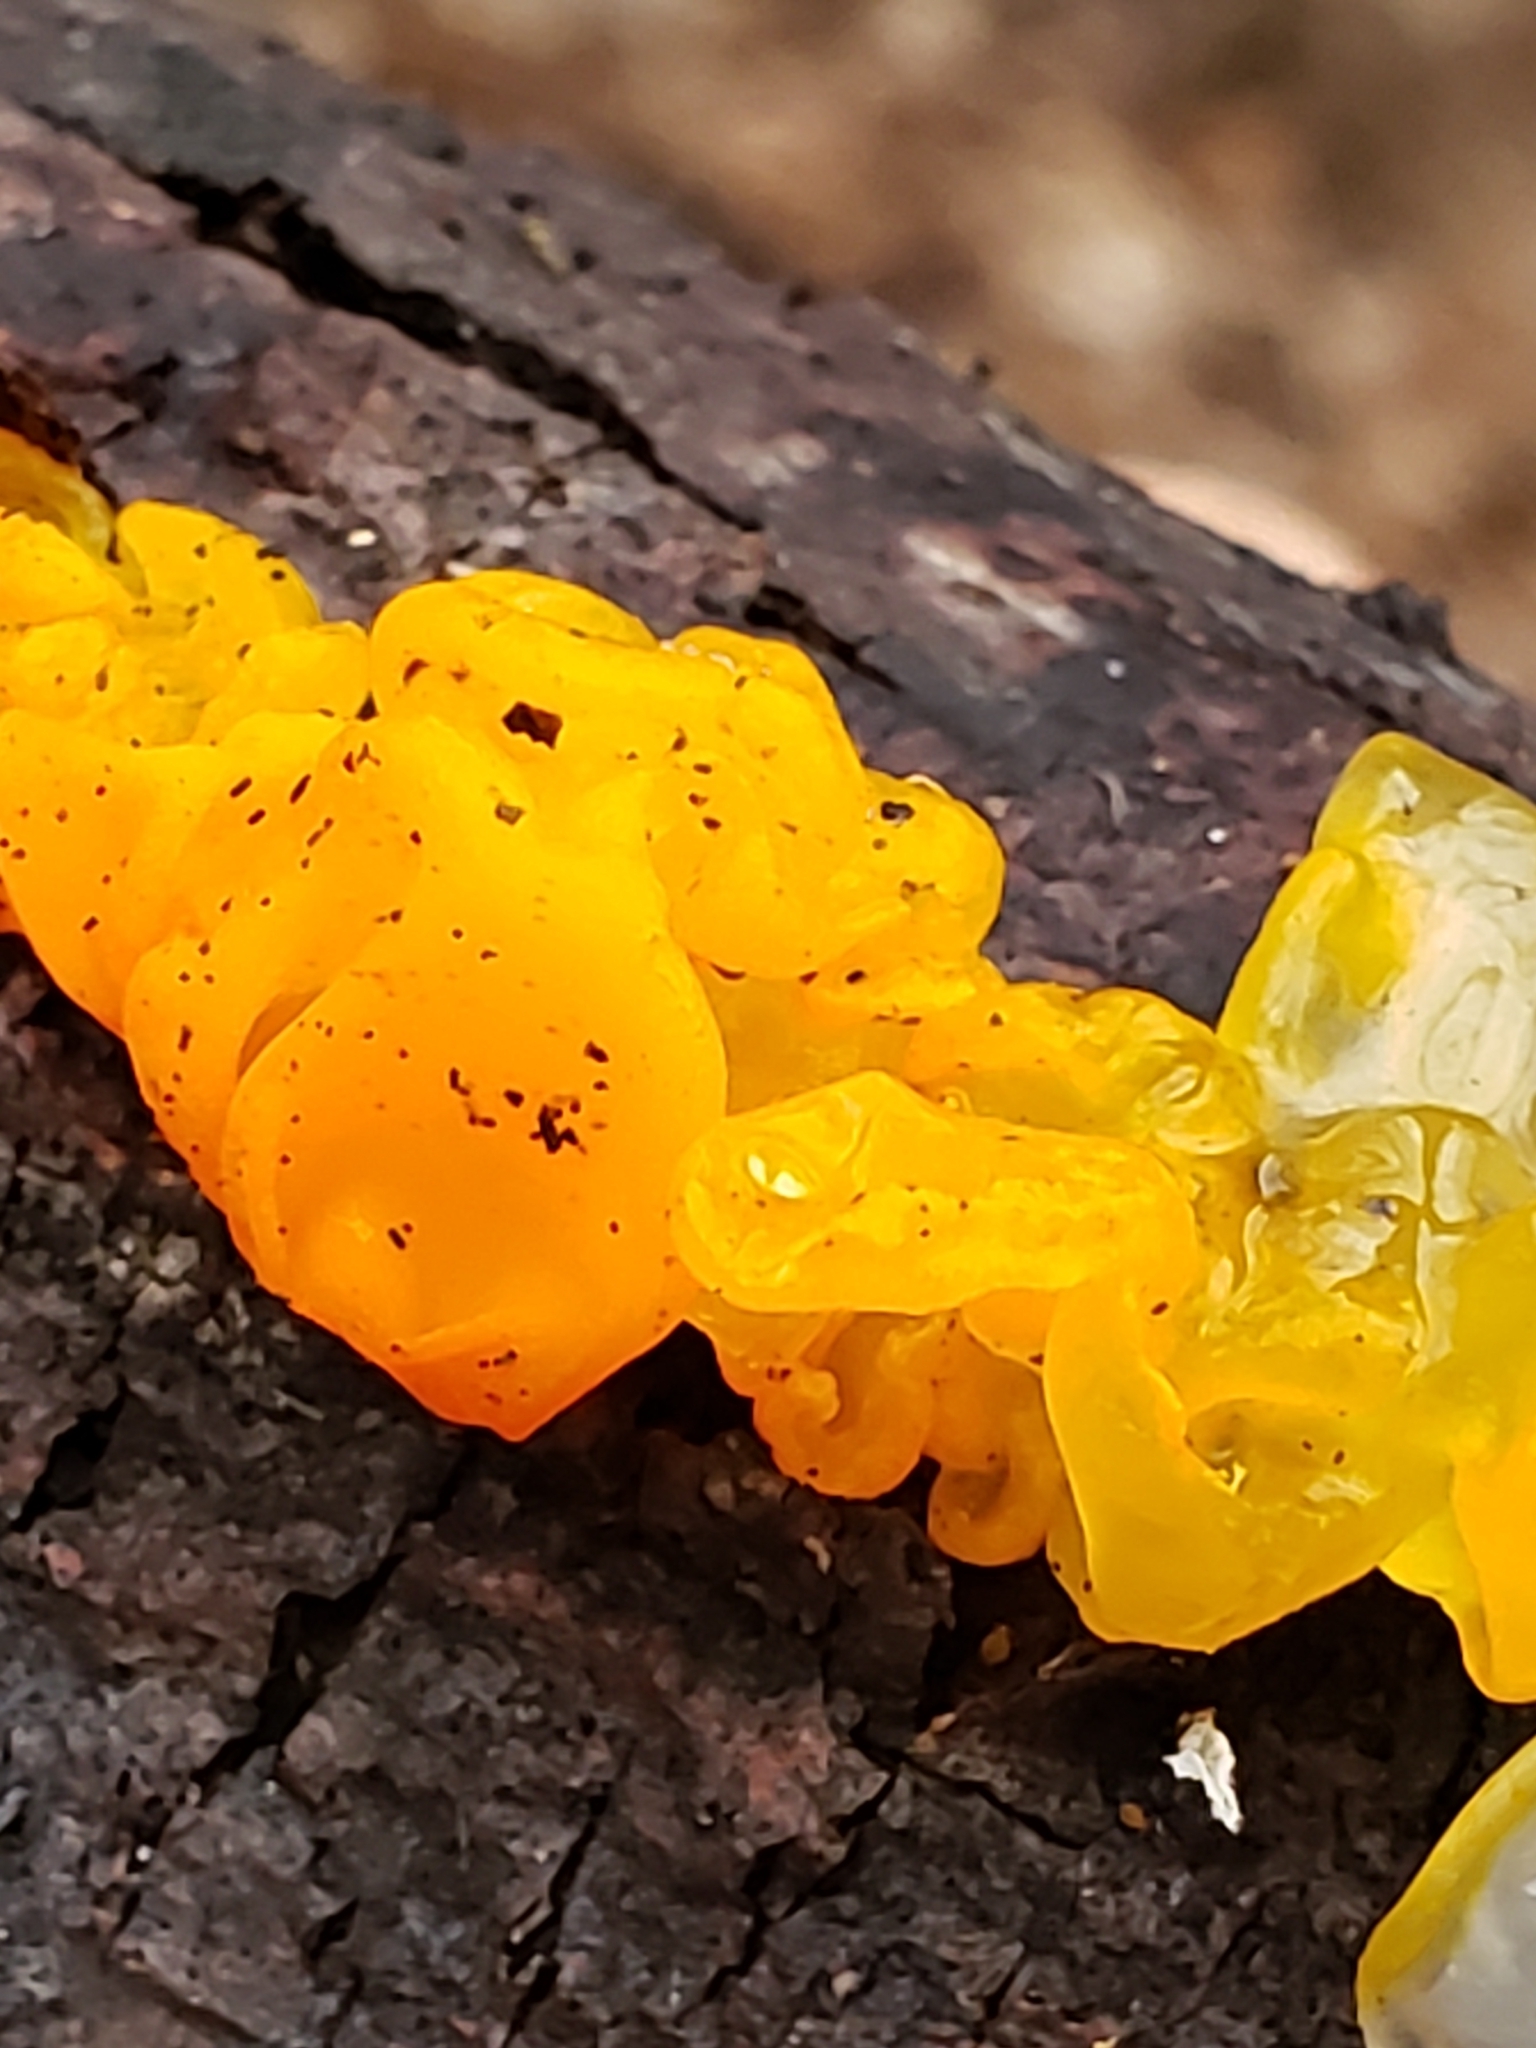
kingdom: Fungi
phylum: Basidiomycota
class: Tremellomycetes
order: Tremellales
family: Tremellaceae
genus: Tremella
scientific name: Tremella mesenterica
